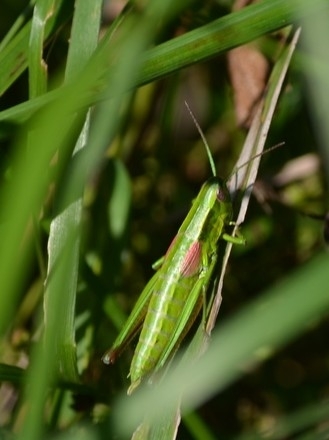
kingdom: Animalia
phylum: Arthropoda
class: Insecta
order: Orthoptera
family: Acrididae
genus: Euthystira
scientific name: Euthystira brachyptera
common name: Small gold grasshopper
